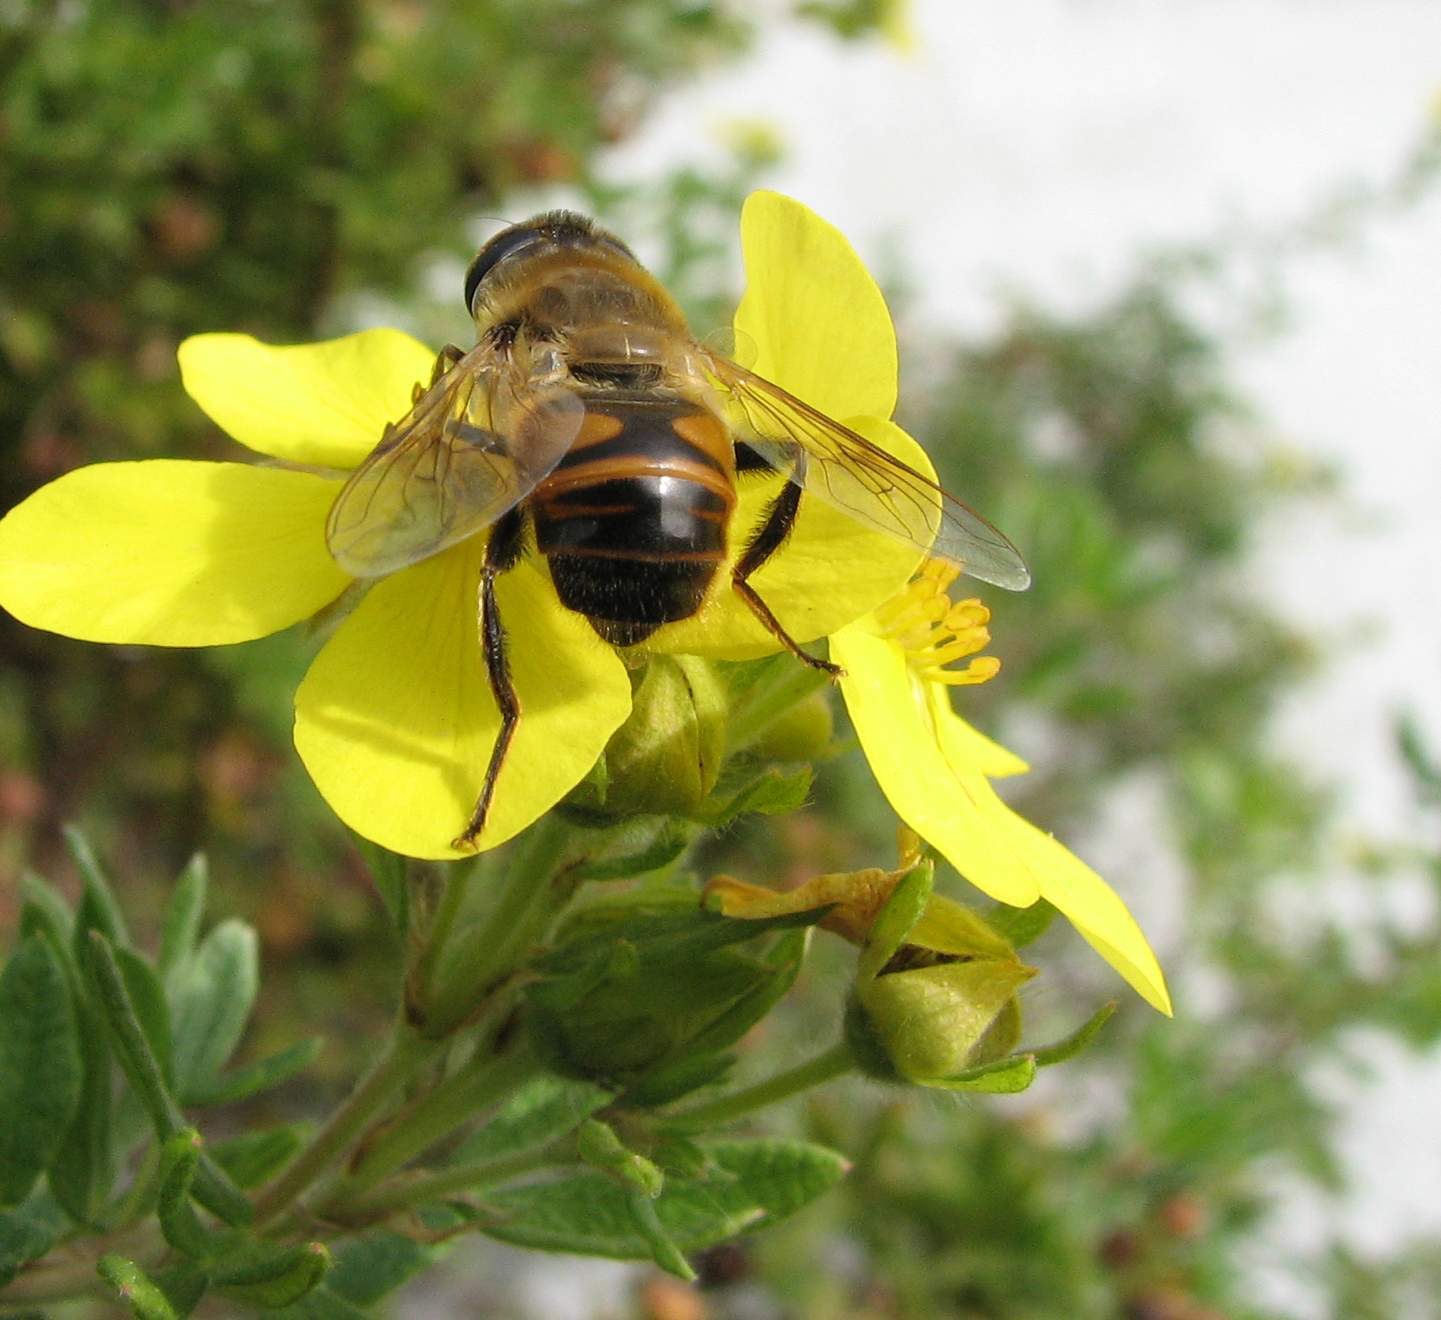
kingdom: Animalia
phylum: Arthropoda
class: Insecta
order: Diptera
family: Syrphidae
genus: Eristalis
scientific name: Eristalis tenax
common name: Drone fly
